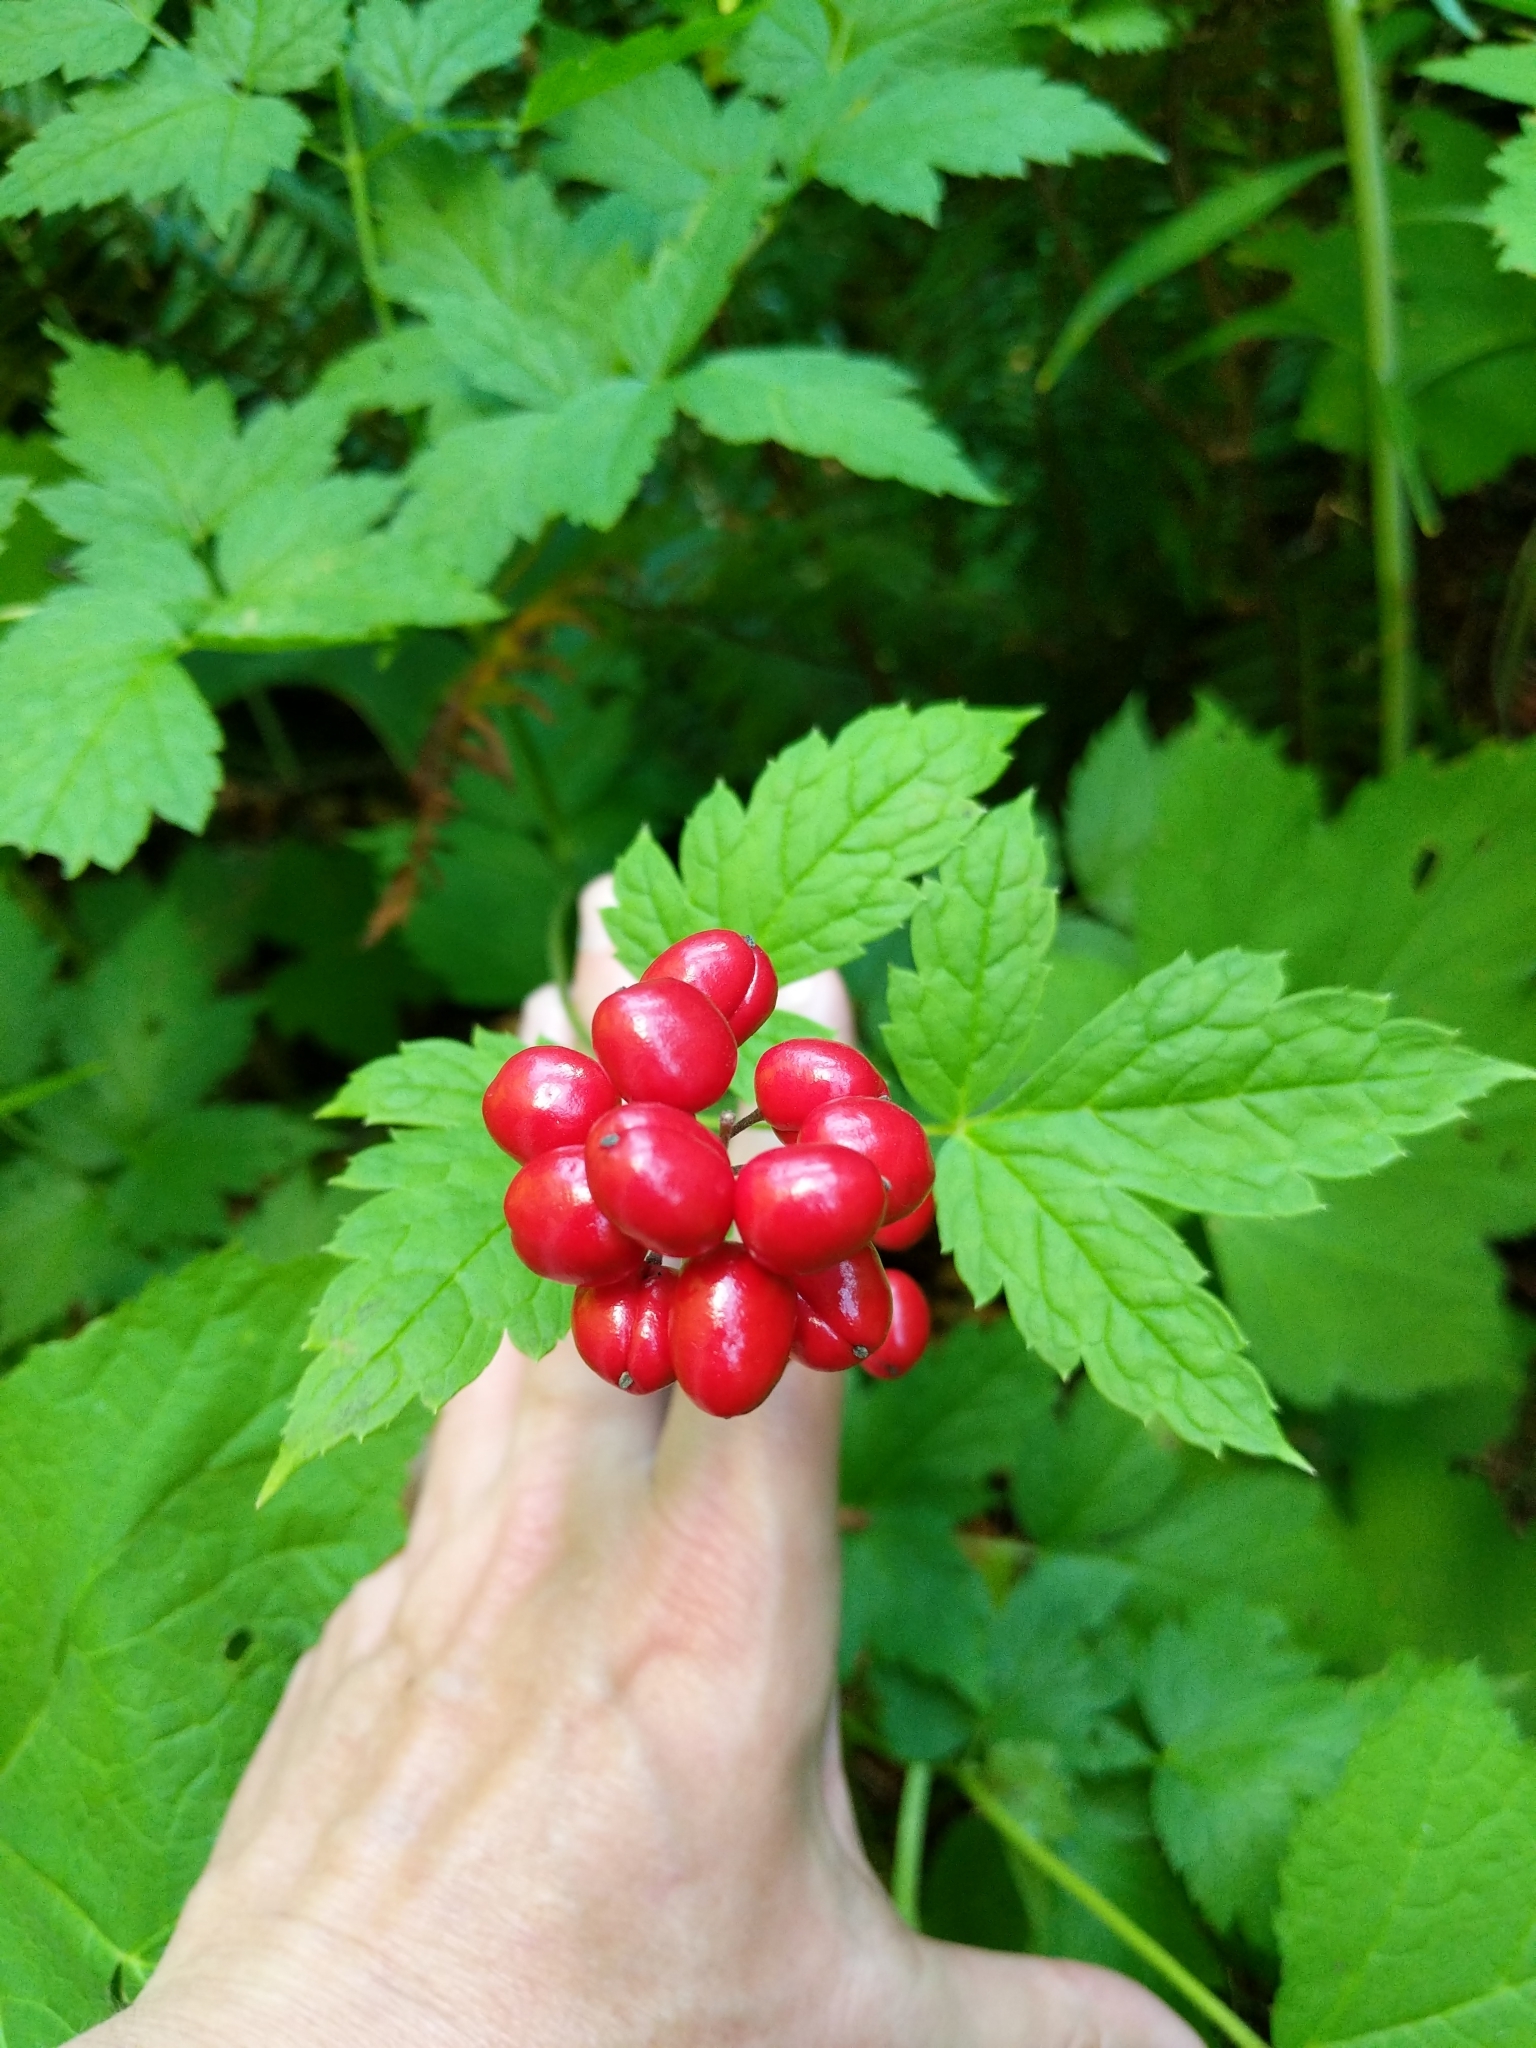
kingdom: Plantae
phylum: Tracheophyta
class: Magnoliopsida
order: Ranunculales
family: Ranunculaceae
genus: Actaea
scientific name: Actaea rubra
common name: Red baneberry
